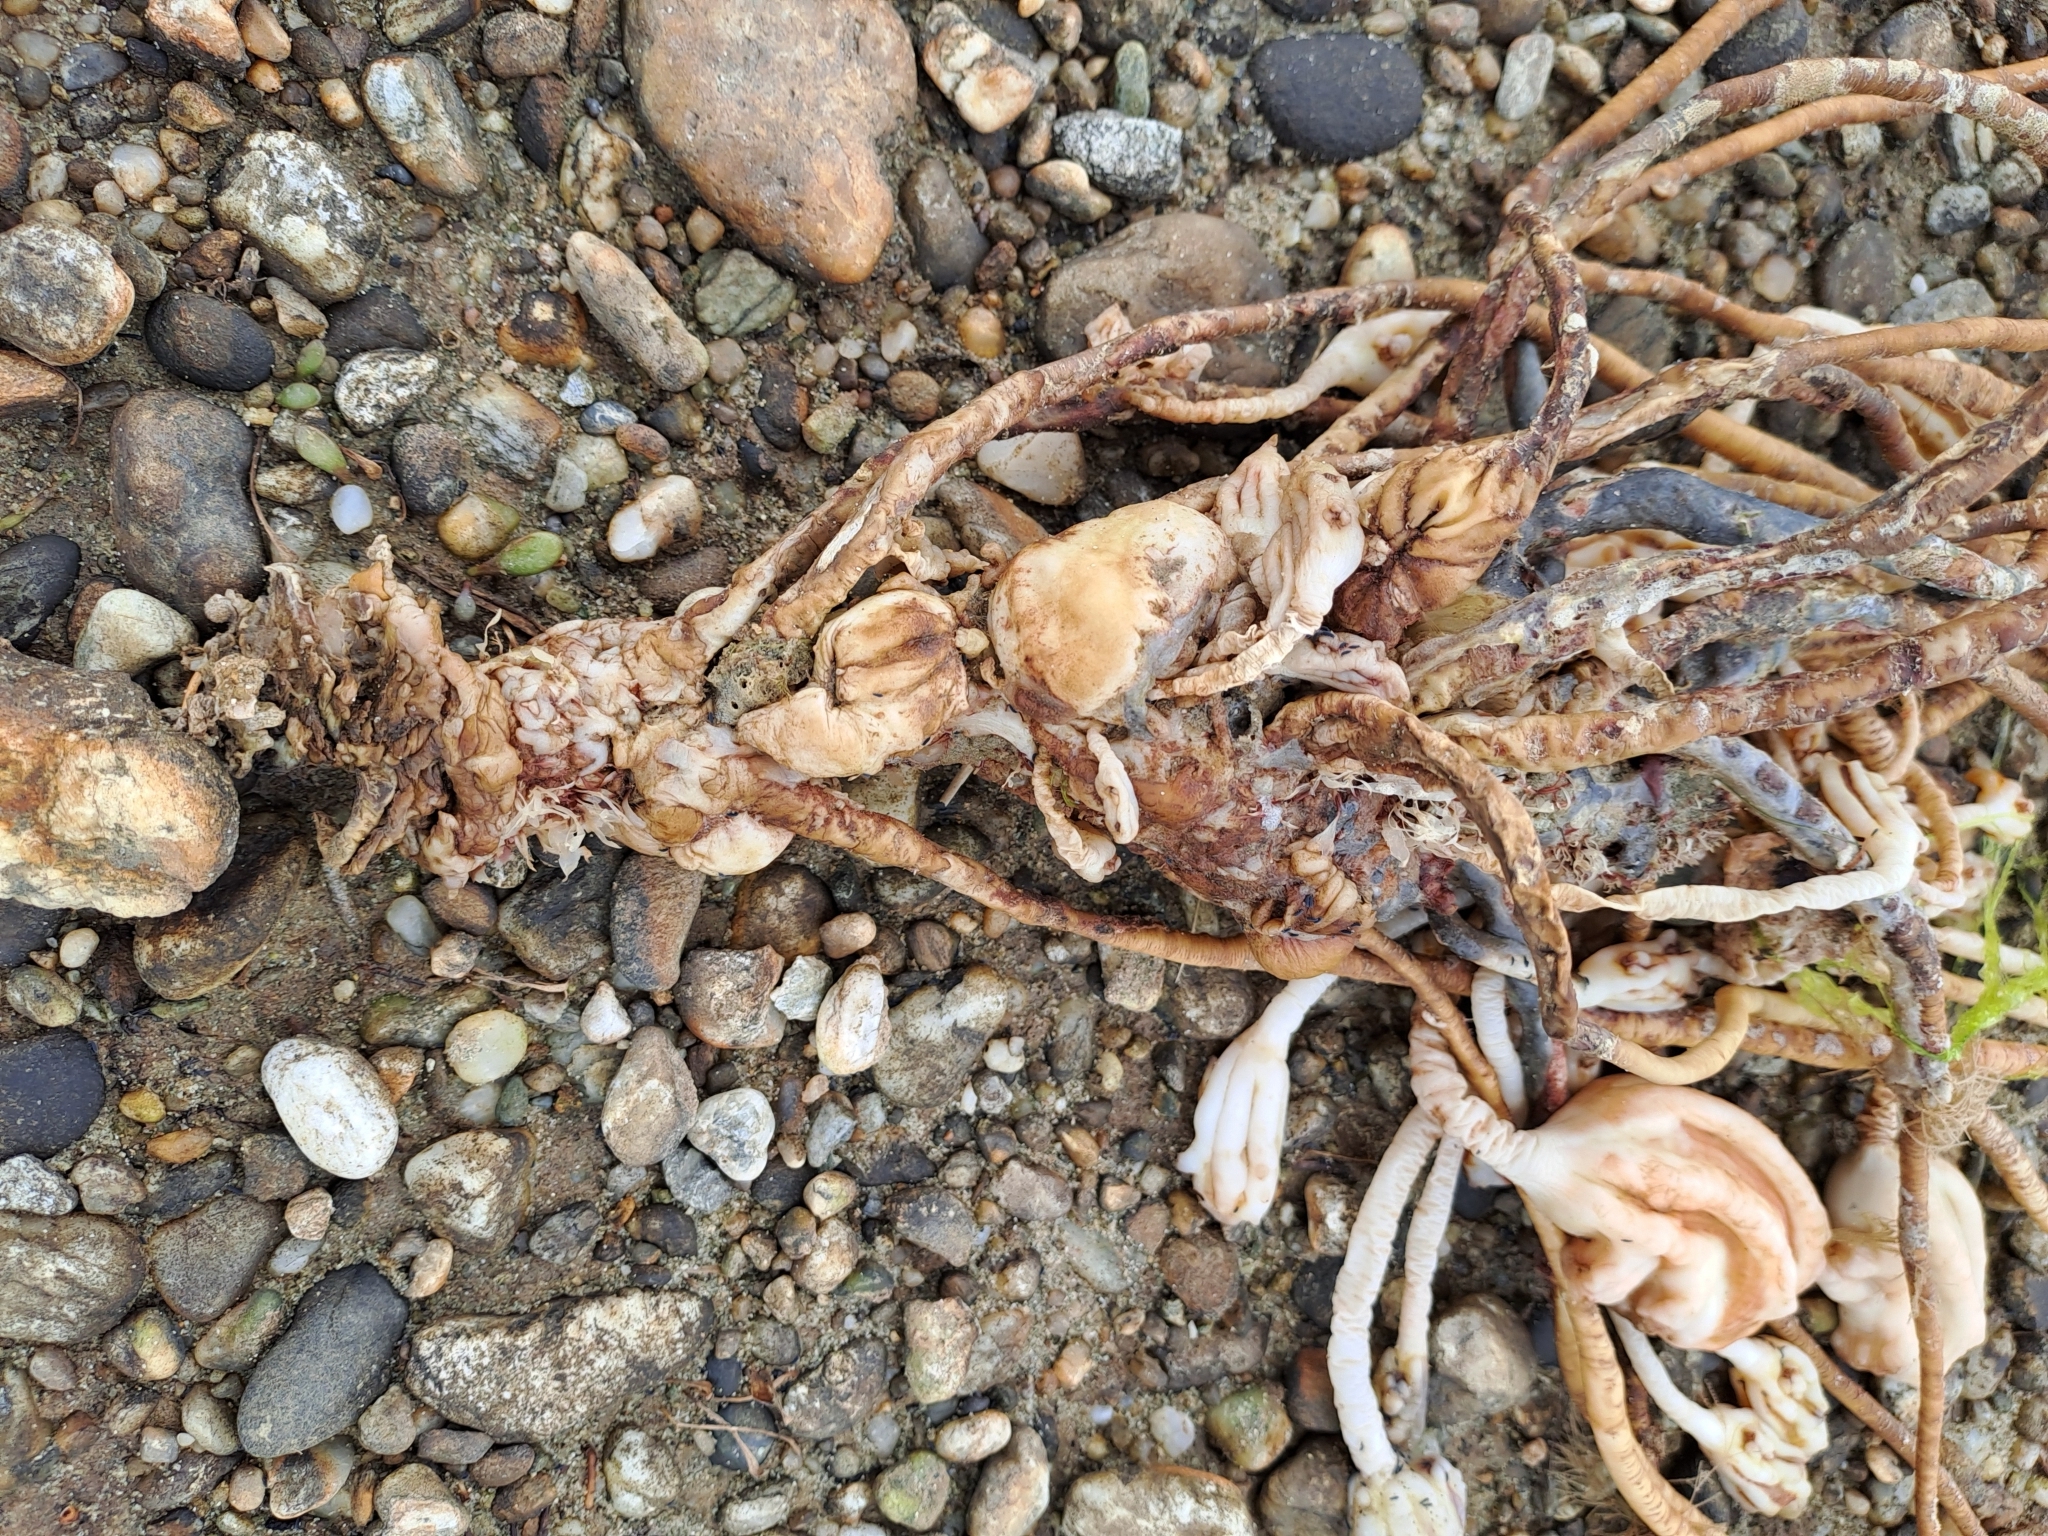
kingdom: Animalia
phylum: Chordata
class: Ascidiacea
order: Stolidobranchia
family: Pyuridae
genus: Pyura
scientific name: Pyura pachydermatina
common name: Sea tulip
